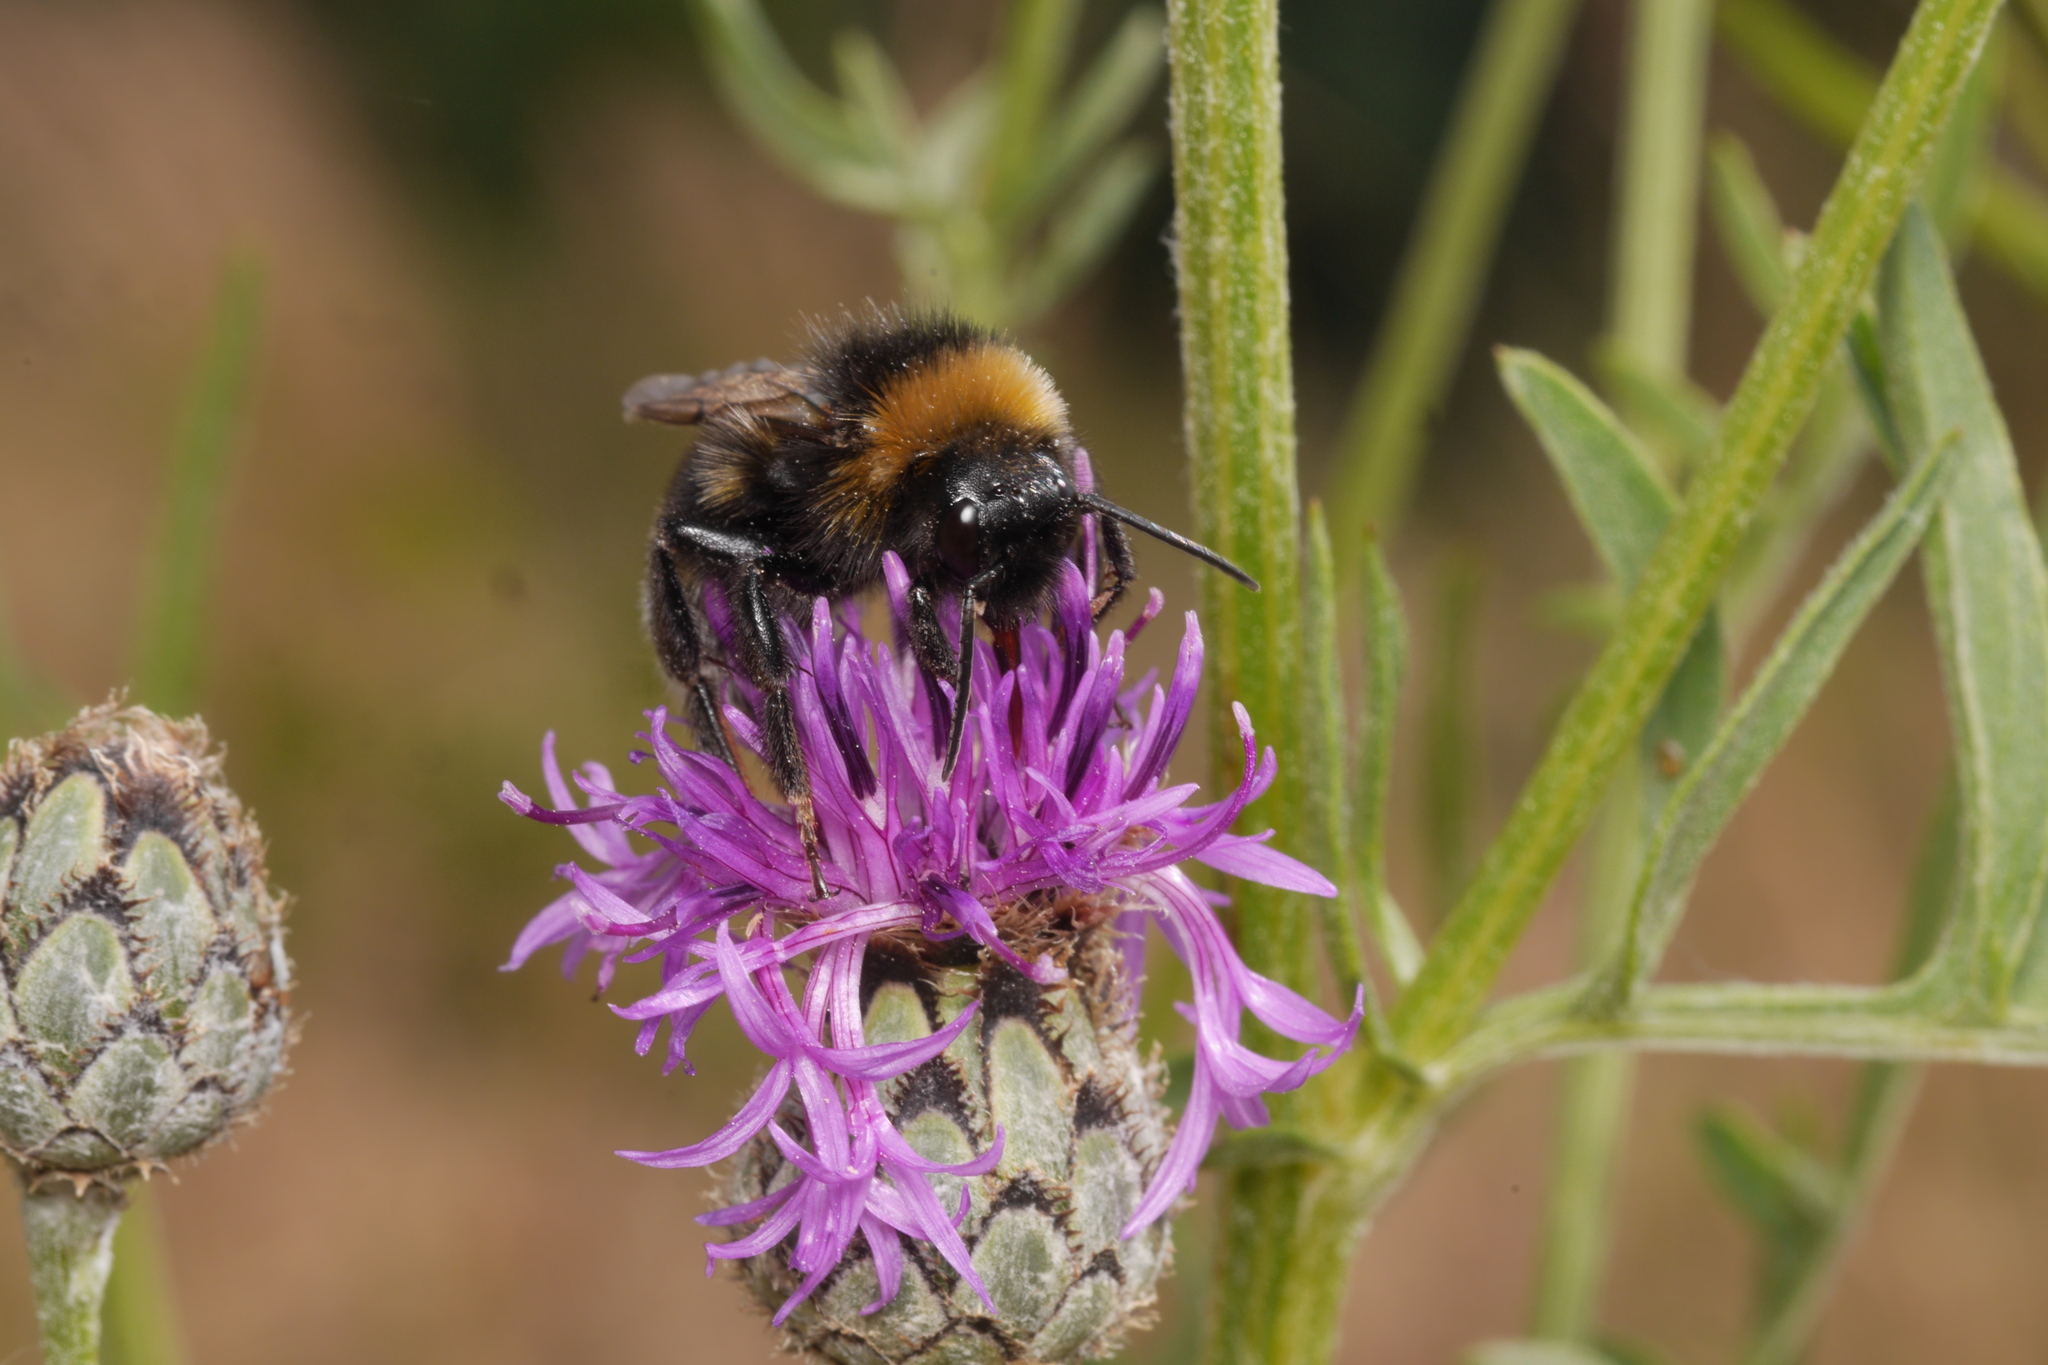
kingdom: Animalia
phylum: Arthropoda
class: Insecta
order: Hymenoptera
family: Apidae
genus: Bombus
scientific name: Bombus vestalis
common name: Vestal cuckoo bee
